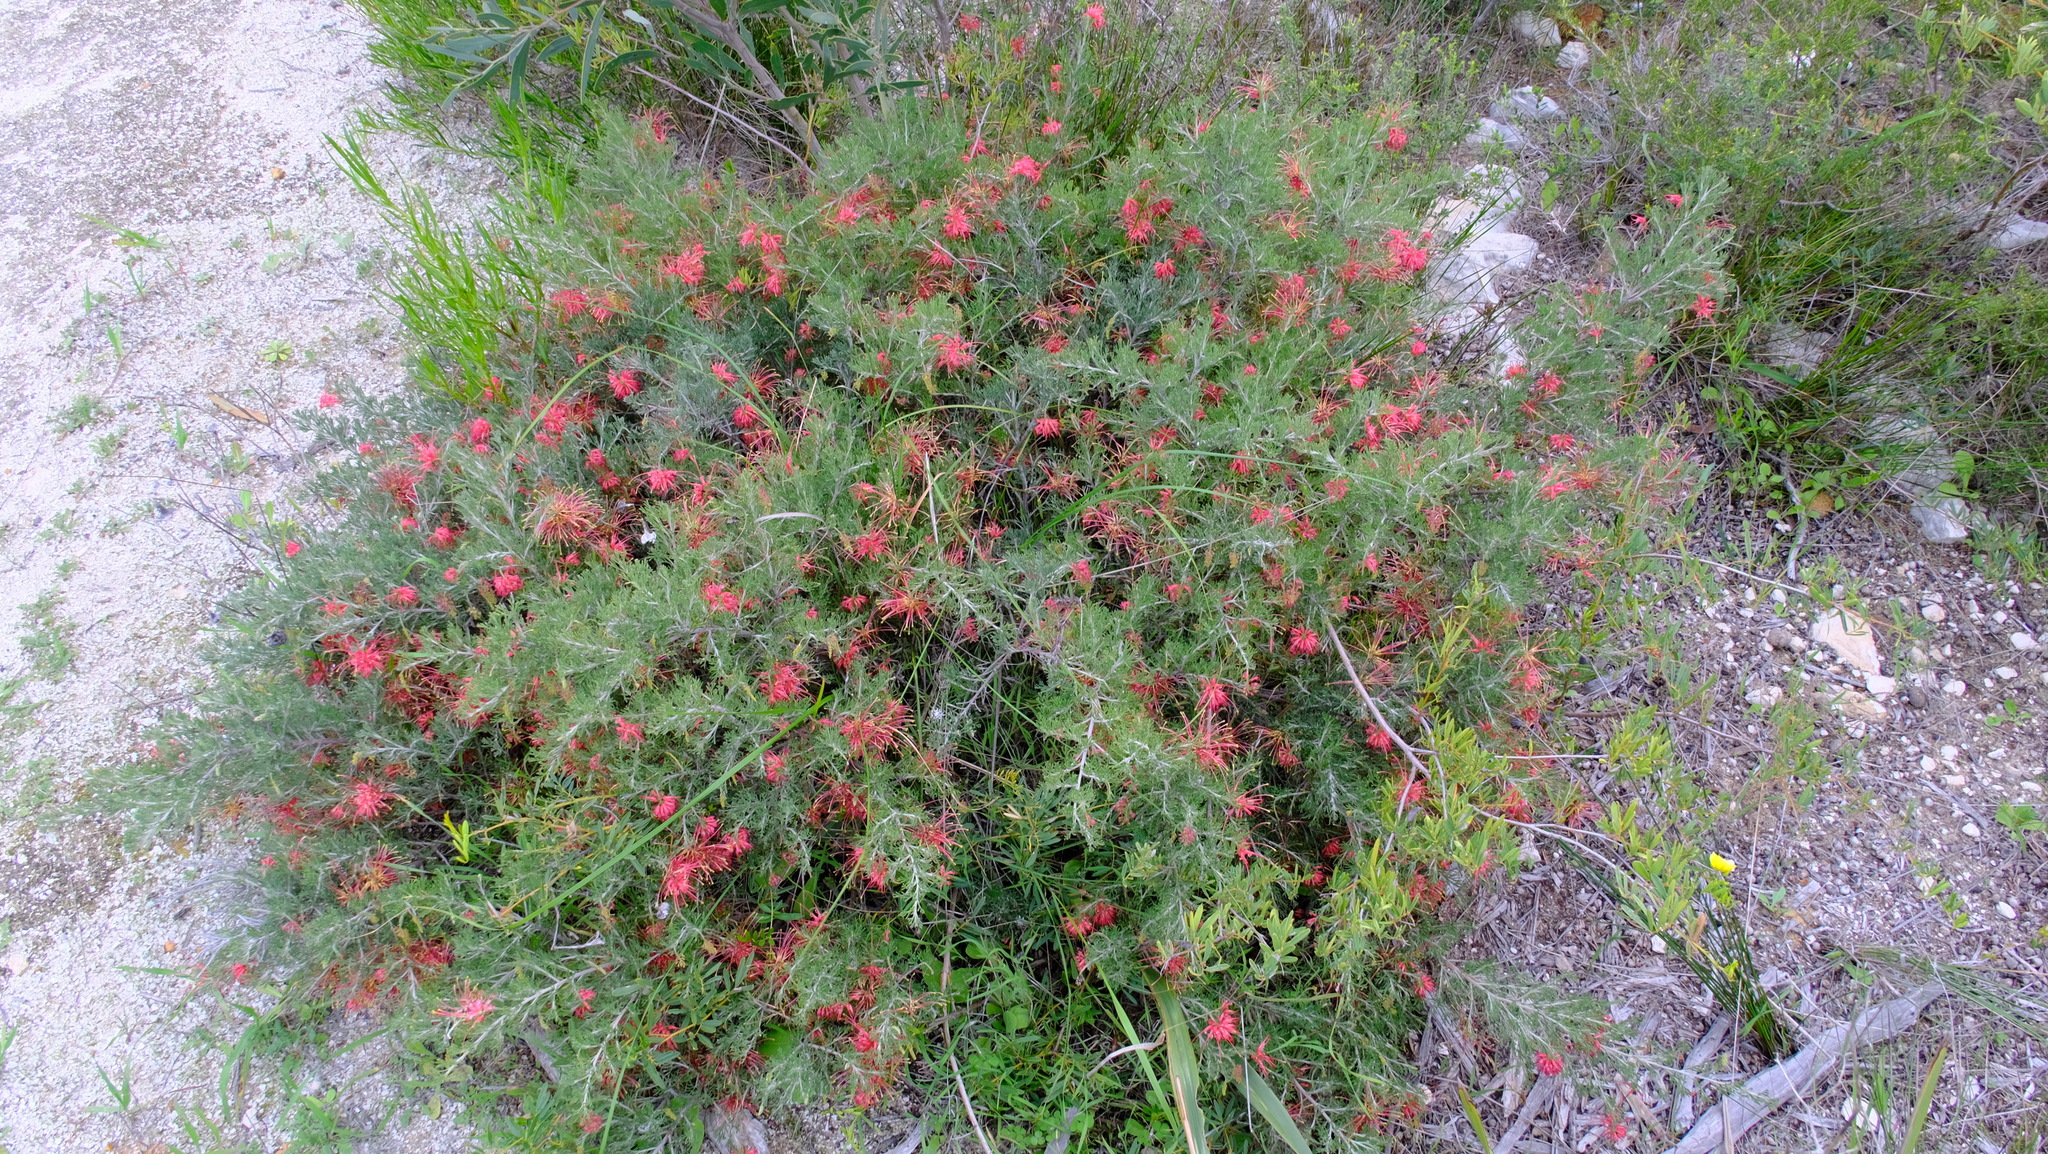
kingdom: Plantae
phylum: Tracheophyta
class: Magnoliopsida
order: Proteales
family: Proteaceae
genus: Grevillea
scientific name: Grevillea glabrilimba
